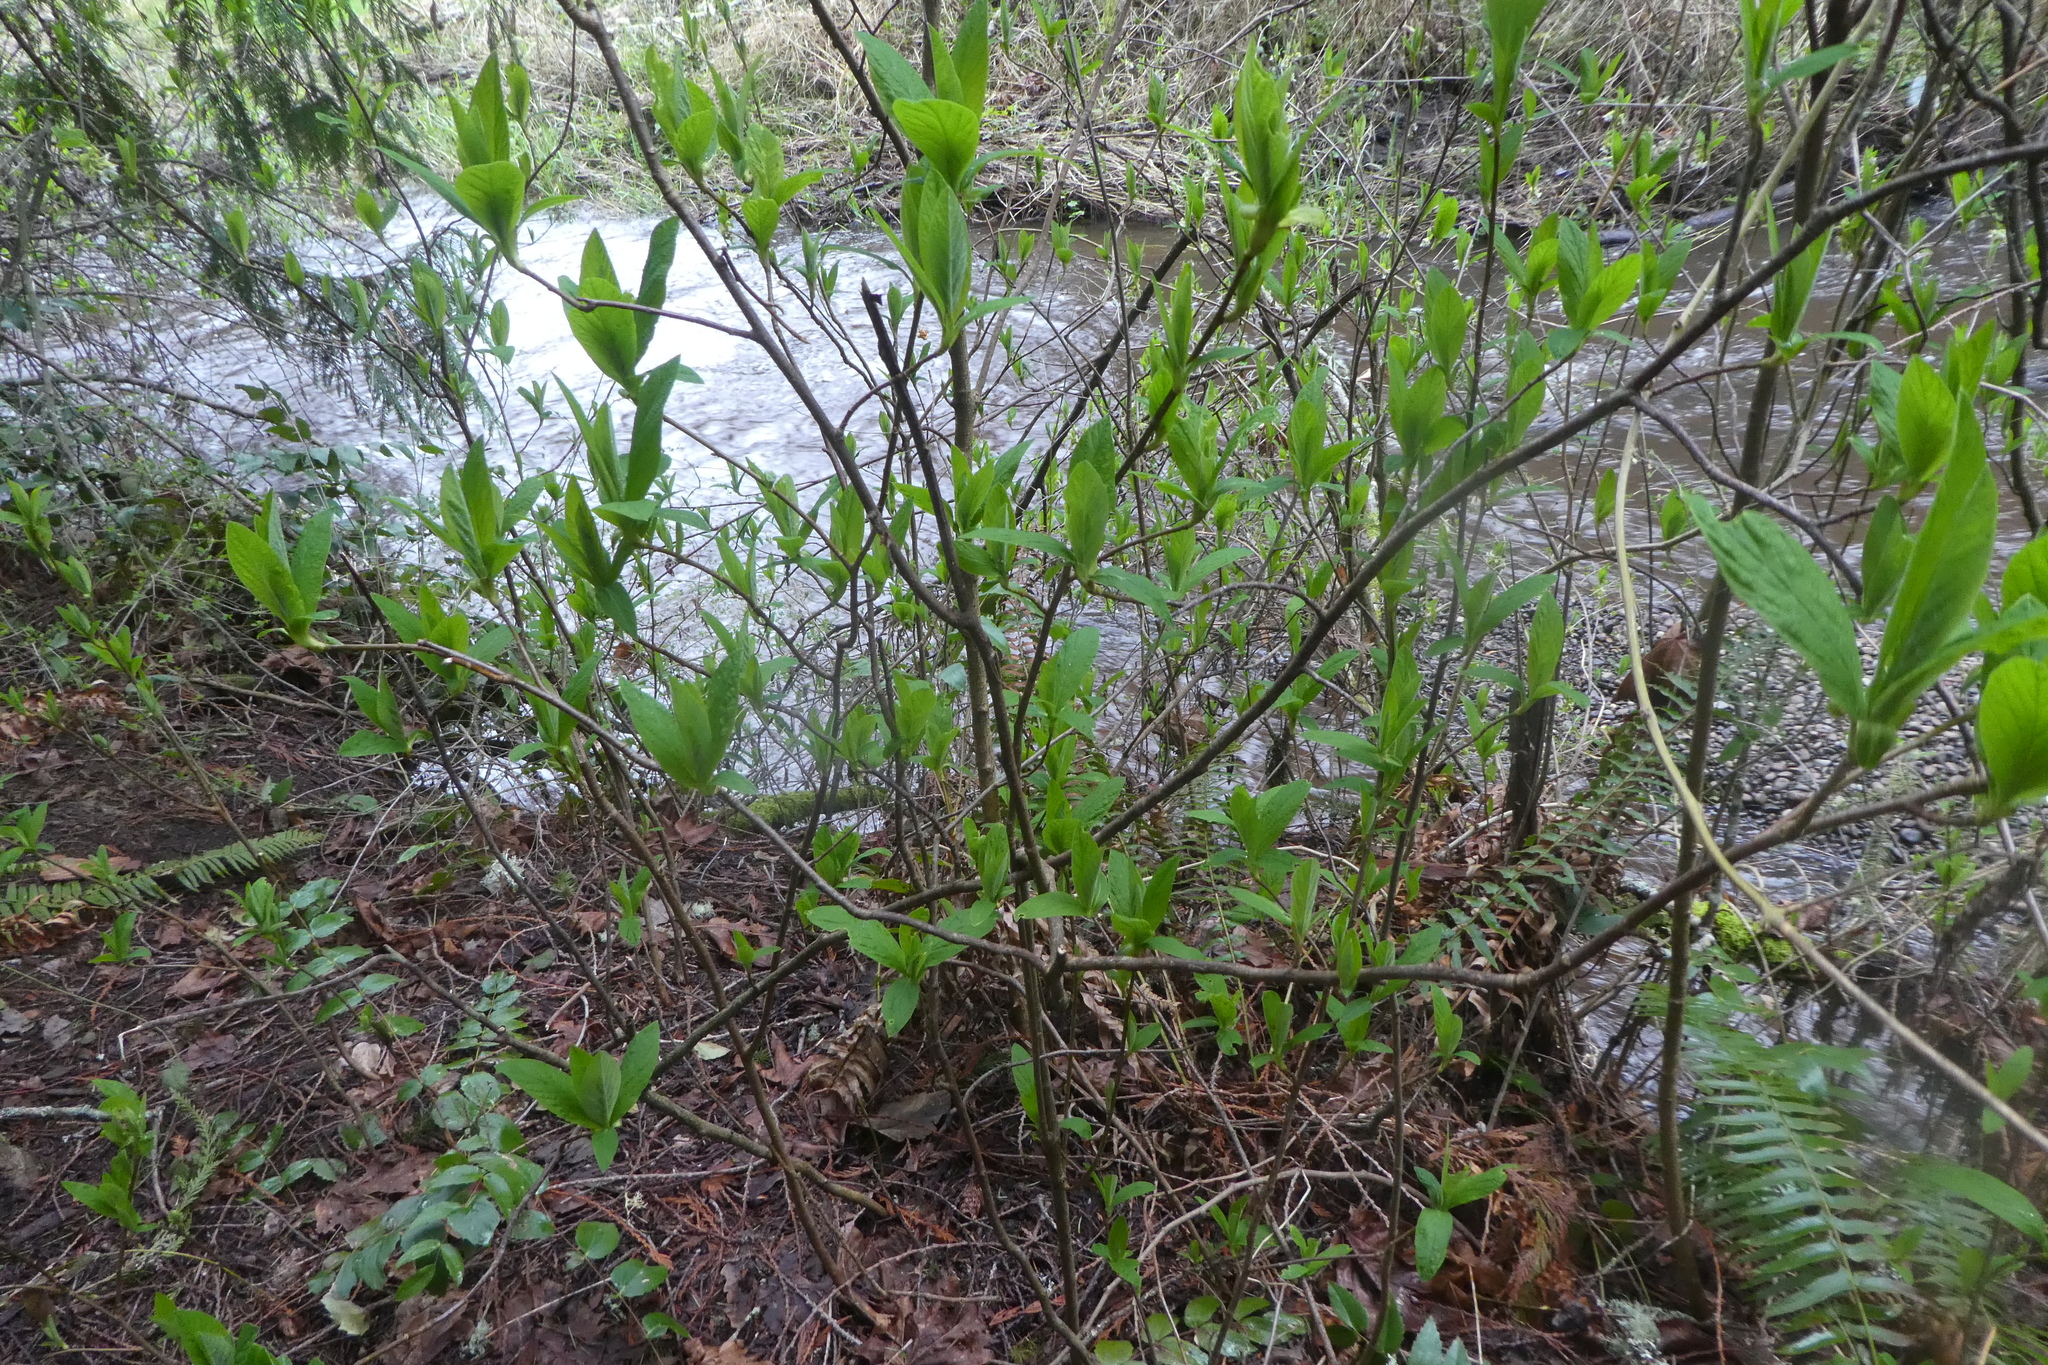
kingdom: Plantae
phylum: Tracheophyta
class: Magnoliopsida
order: Rosales
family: Rosaceae
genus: Oemleria
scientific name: Oemleria cerasiformis
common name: Osoberry
